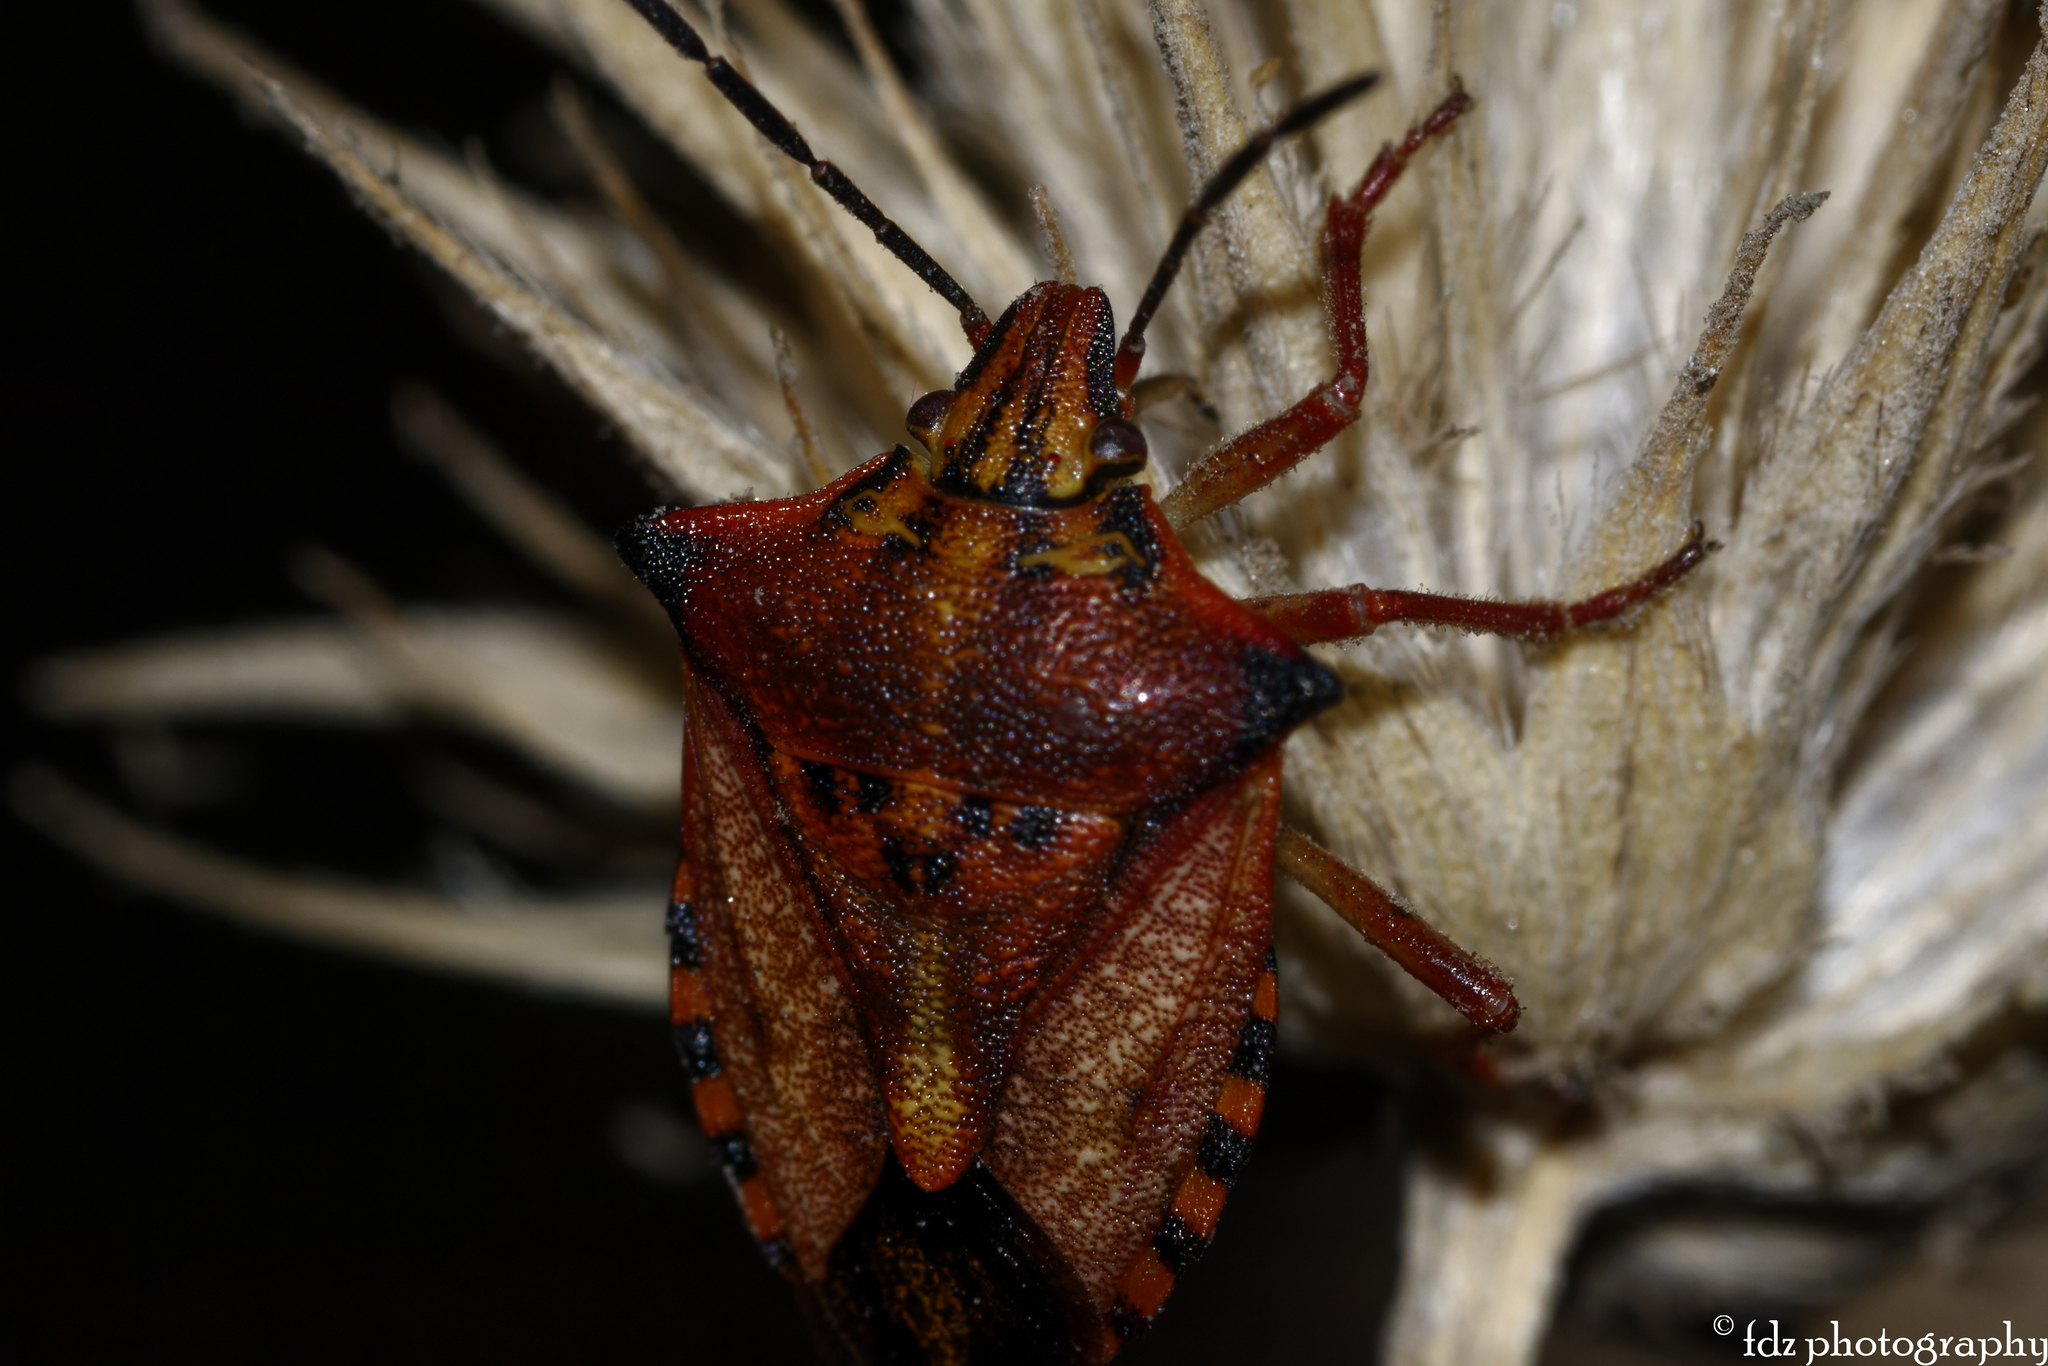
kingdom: Animalia
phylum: Arthropoda
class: Insecta
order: Hemiptera
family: Pentatomidae
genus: Carpocoris
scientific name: Carpocoris mediterraneus
